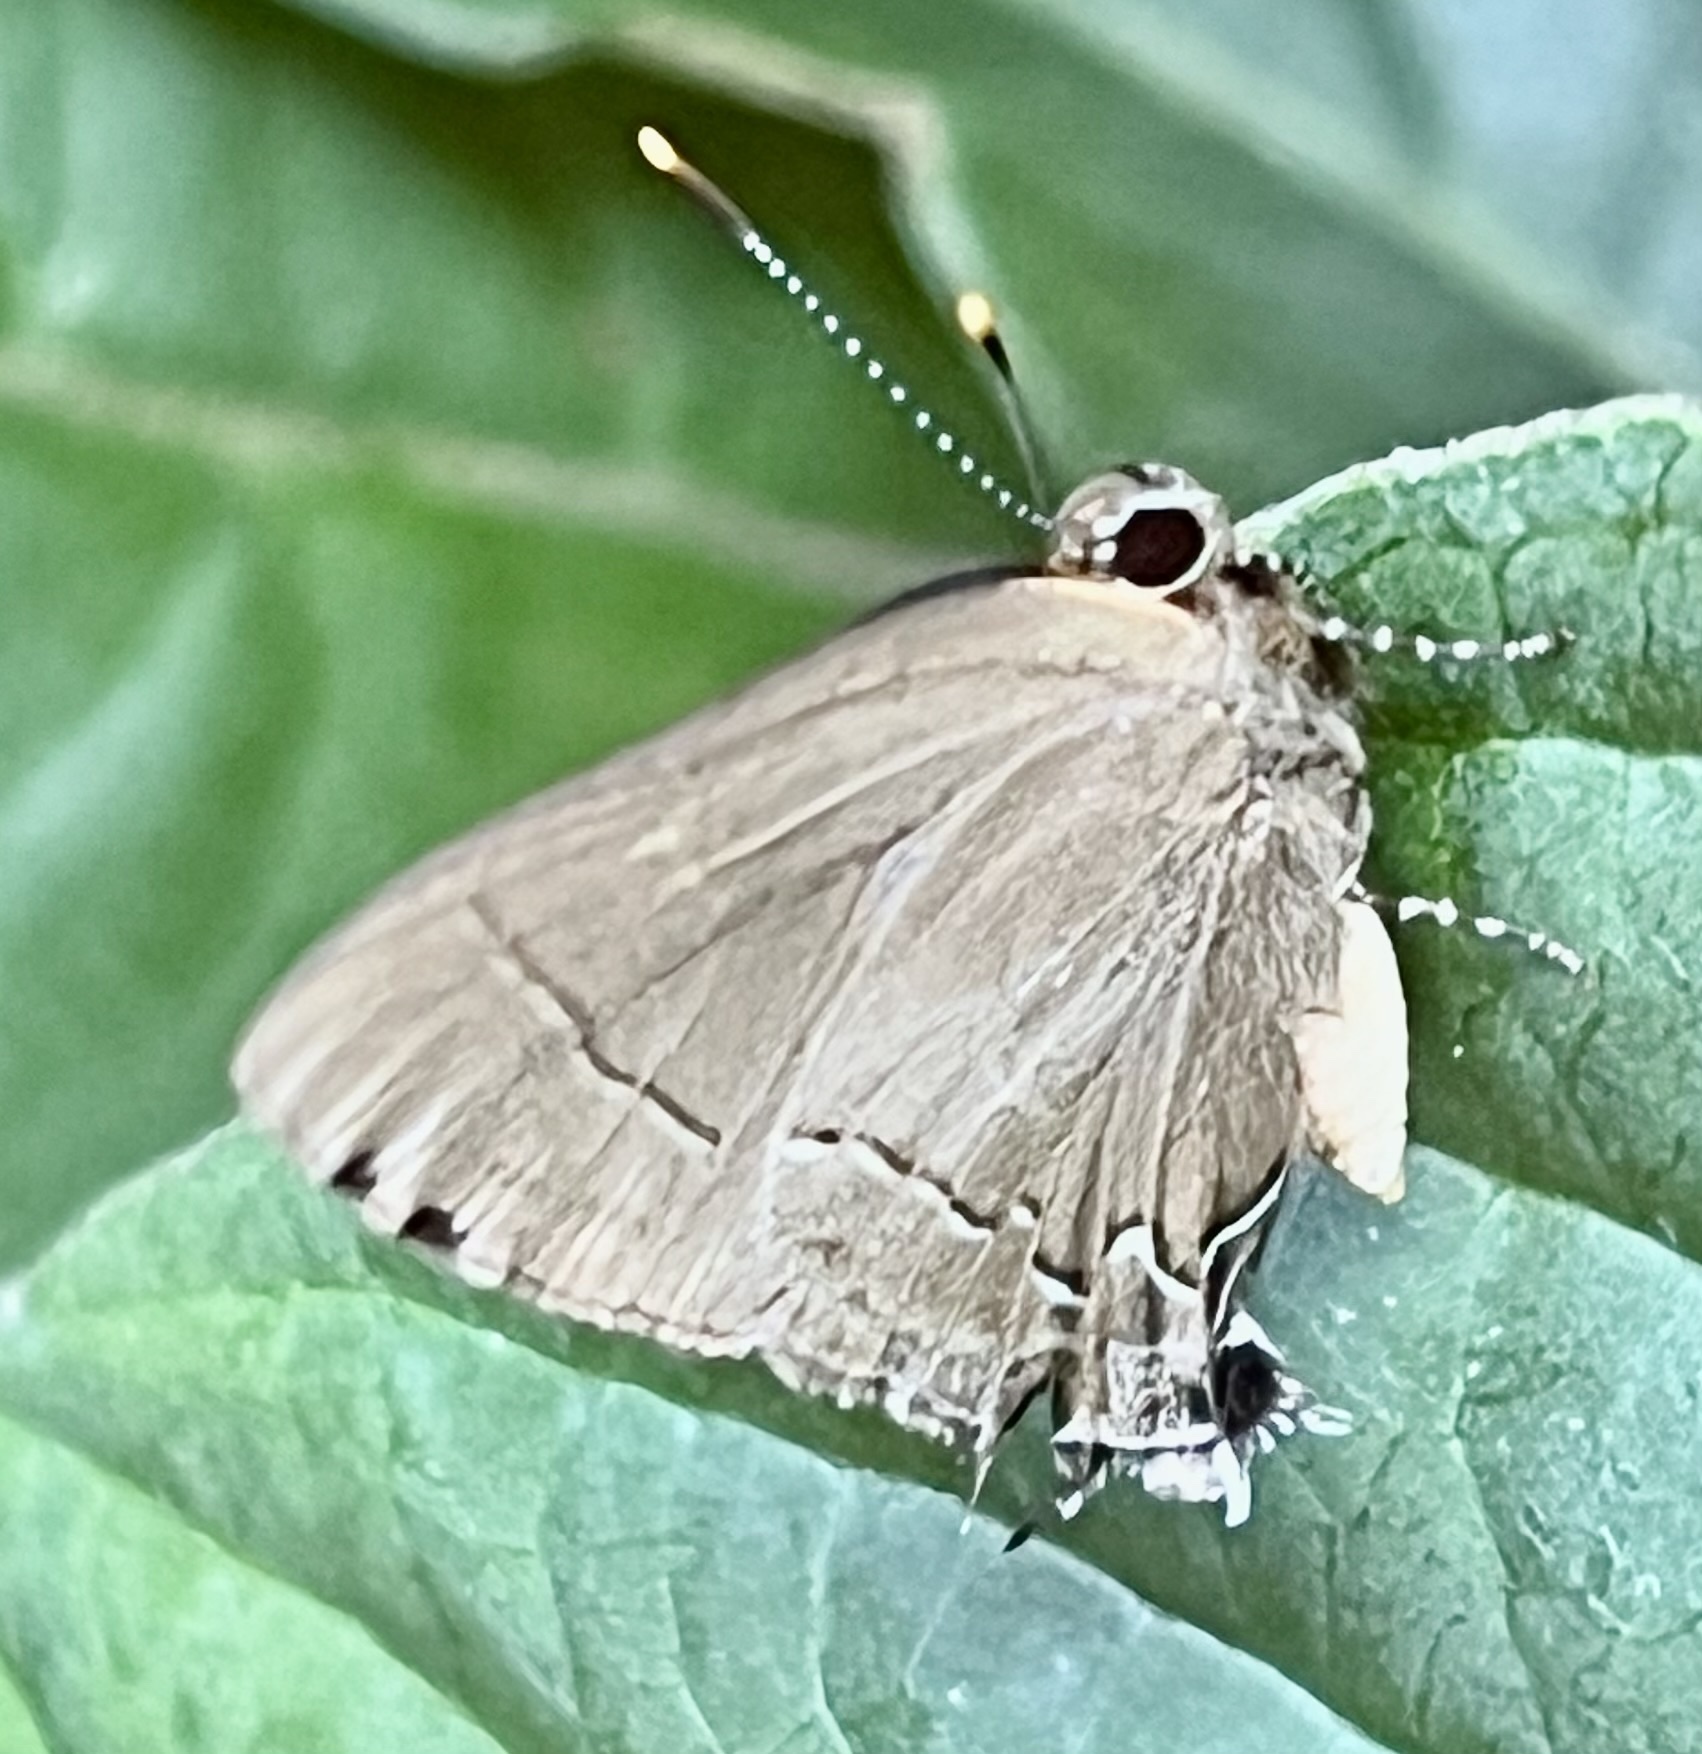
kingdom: Animalia
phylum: Arthropoda
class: Insecta
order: Lepidoptera
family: Lycaenidae
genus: Ziegleria
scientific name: Ziegleria hesperitis
